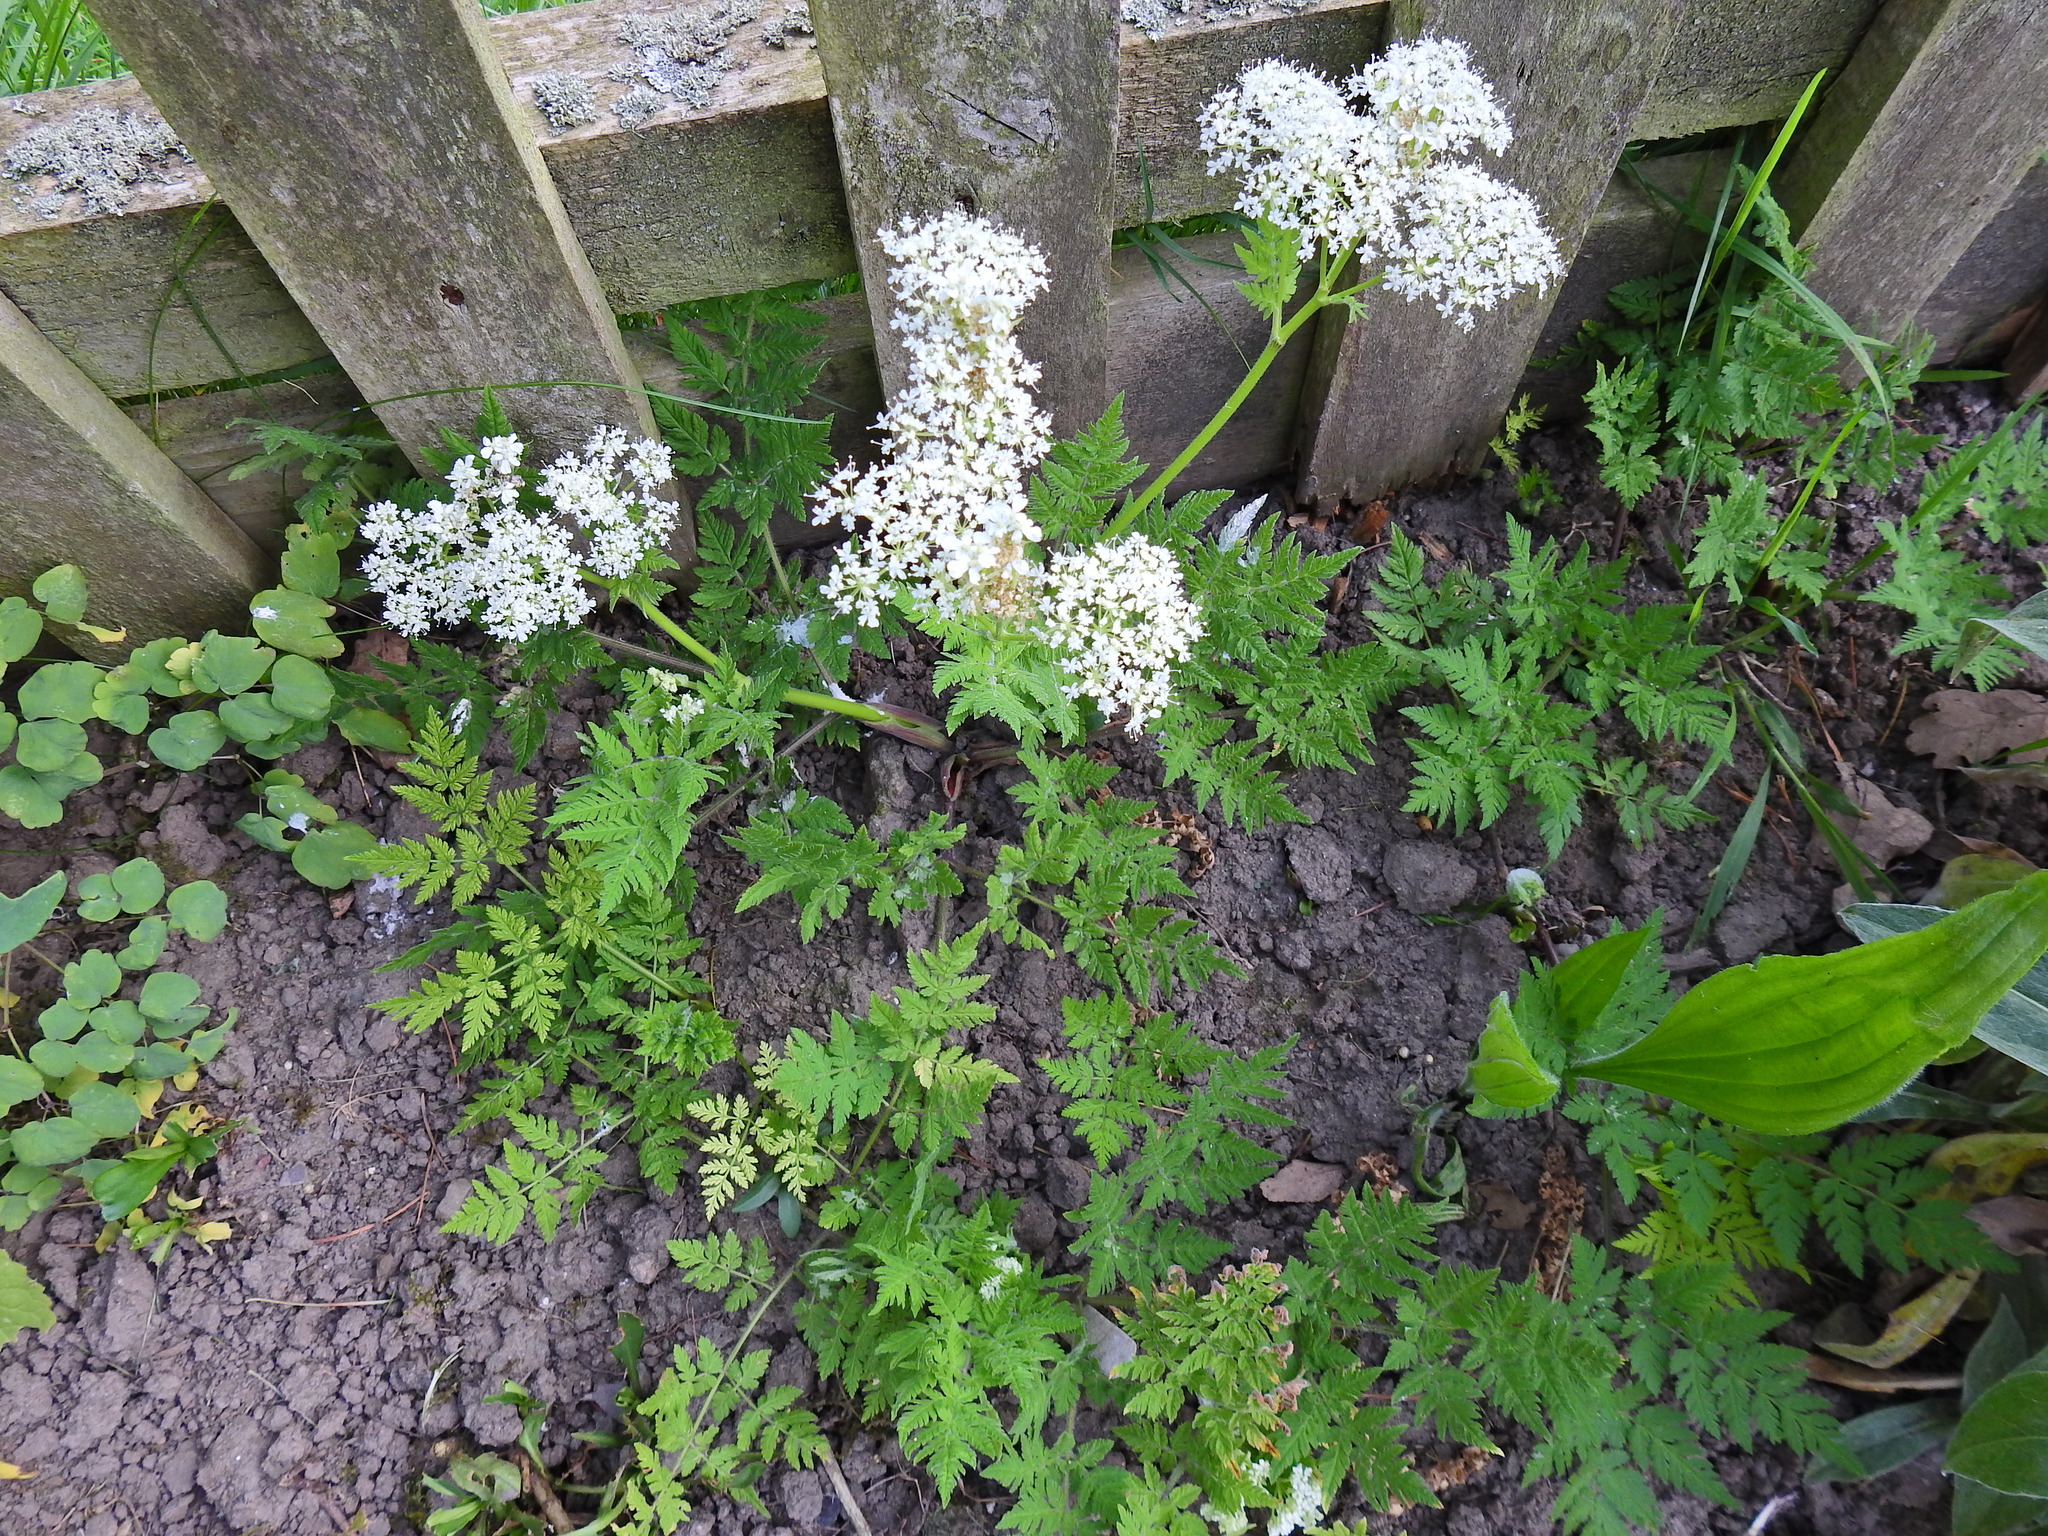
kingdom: Plantae
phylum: Tracheophyta
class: Magnoliopsida
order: Apiales
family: Apiaceae
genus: Myrrhis
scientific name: Myrrhis odorata
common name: Sweet cicely
